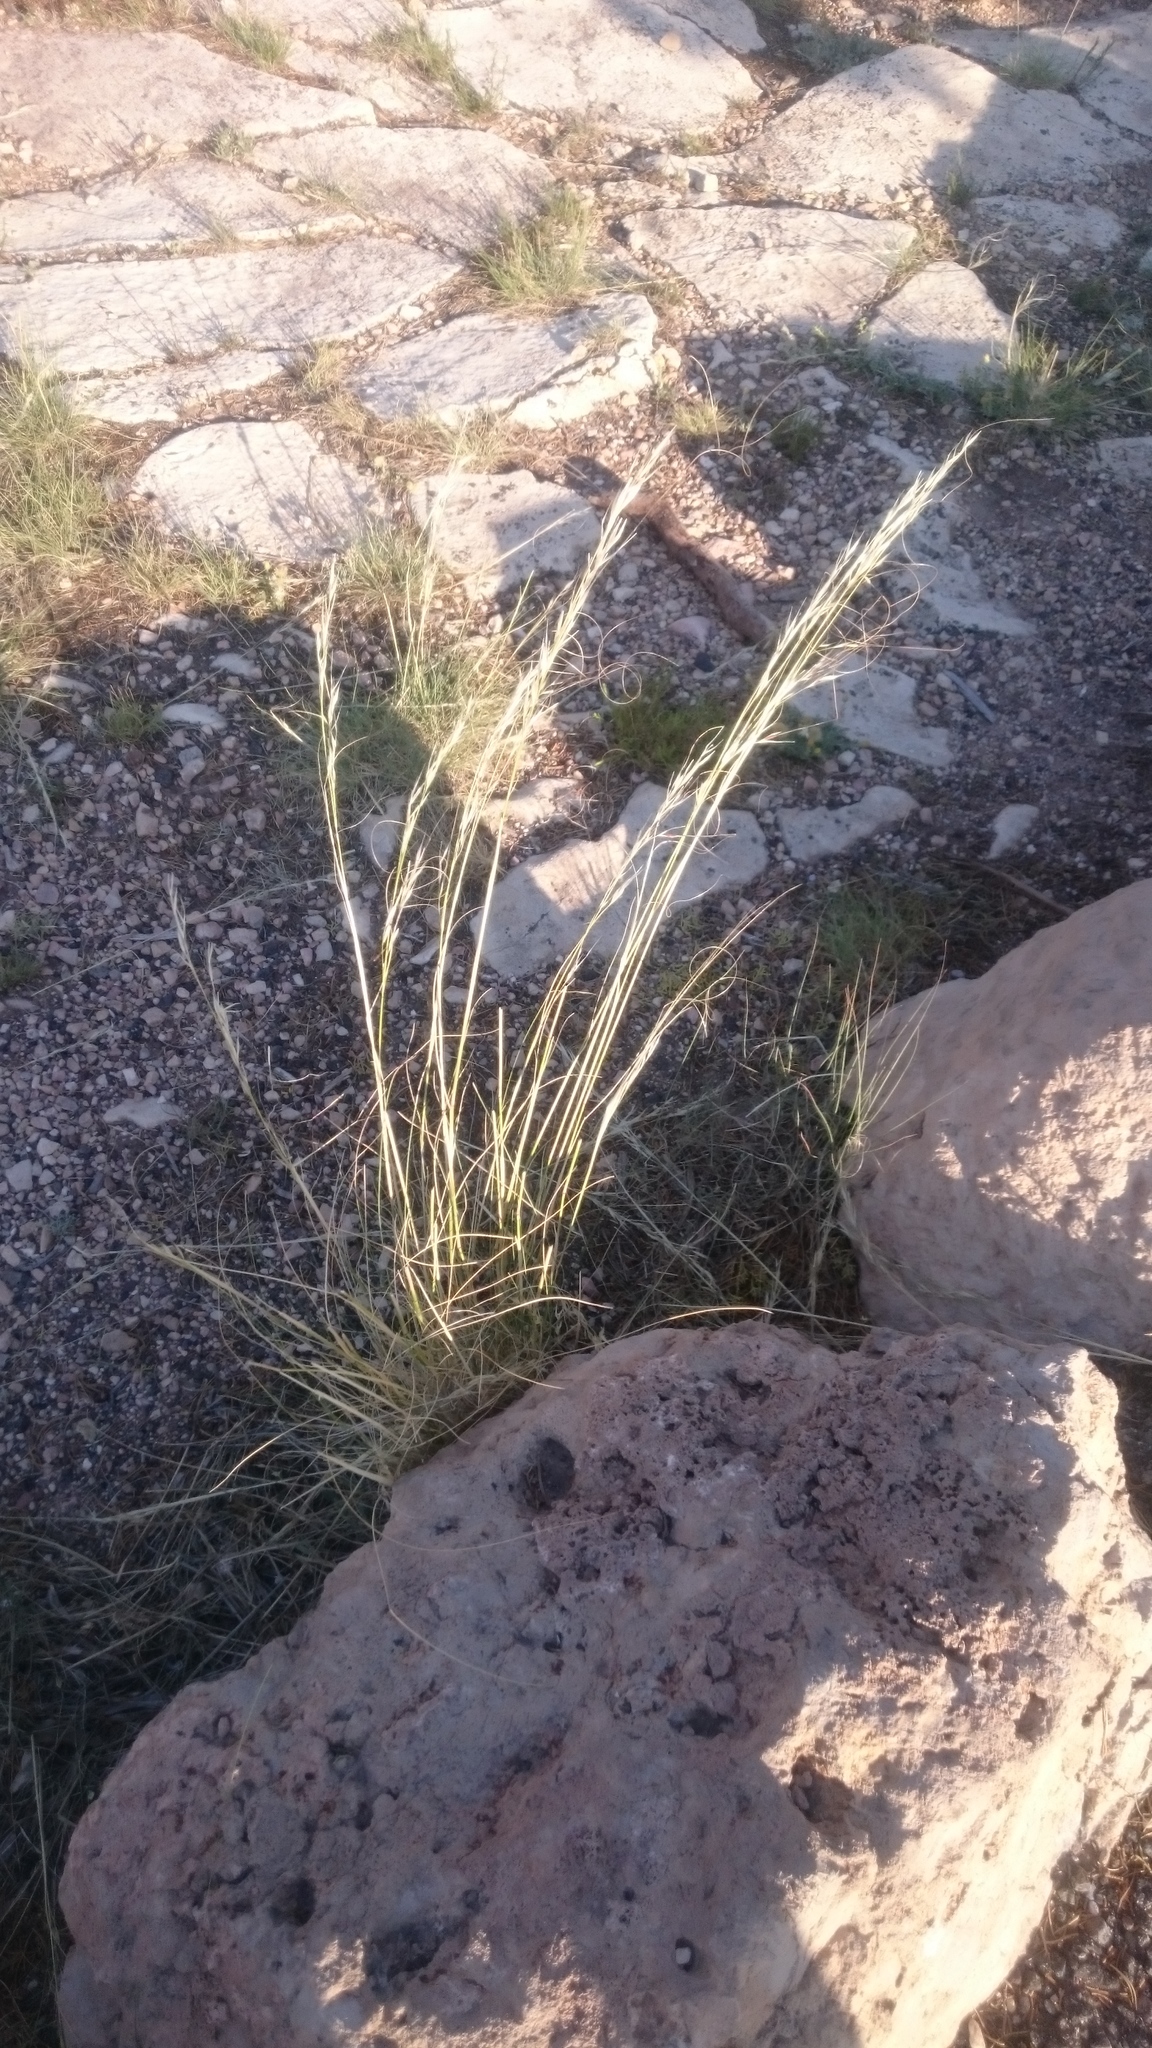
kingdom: Plantae
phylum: Tracheophyta
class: Liliopsida
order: Poales
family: Poaceae
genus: Hesperostipa
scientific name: Hesperostipa comata
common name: Needle-and-thread grass
